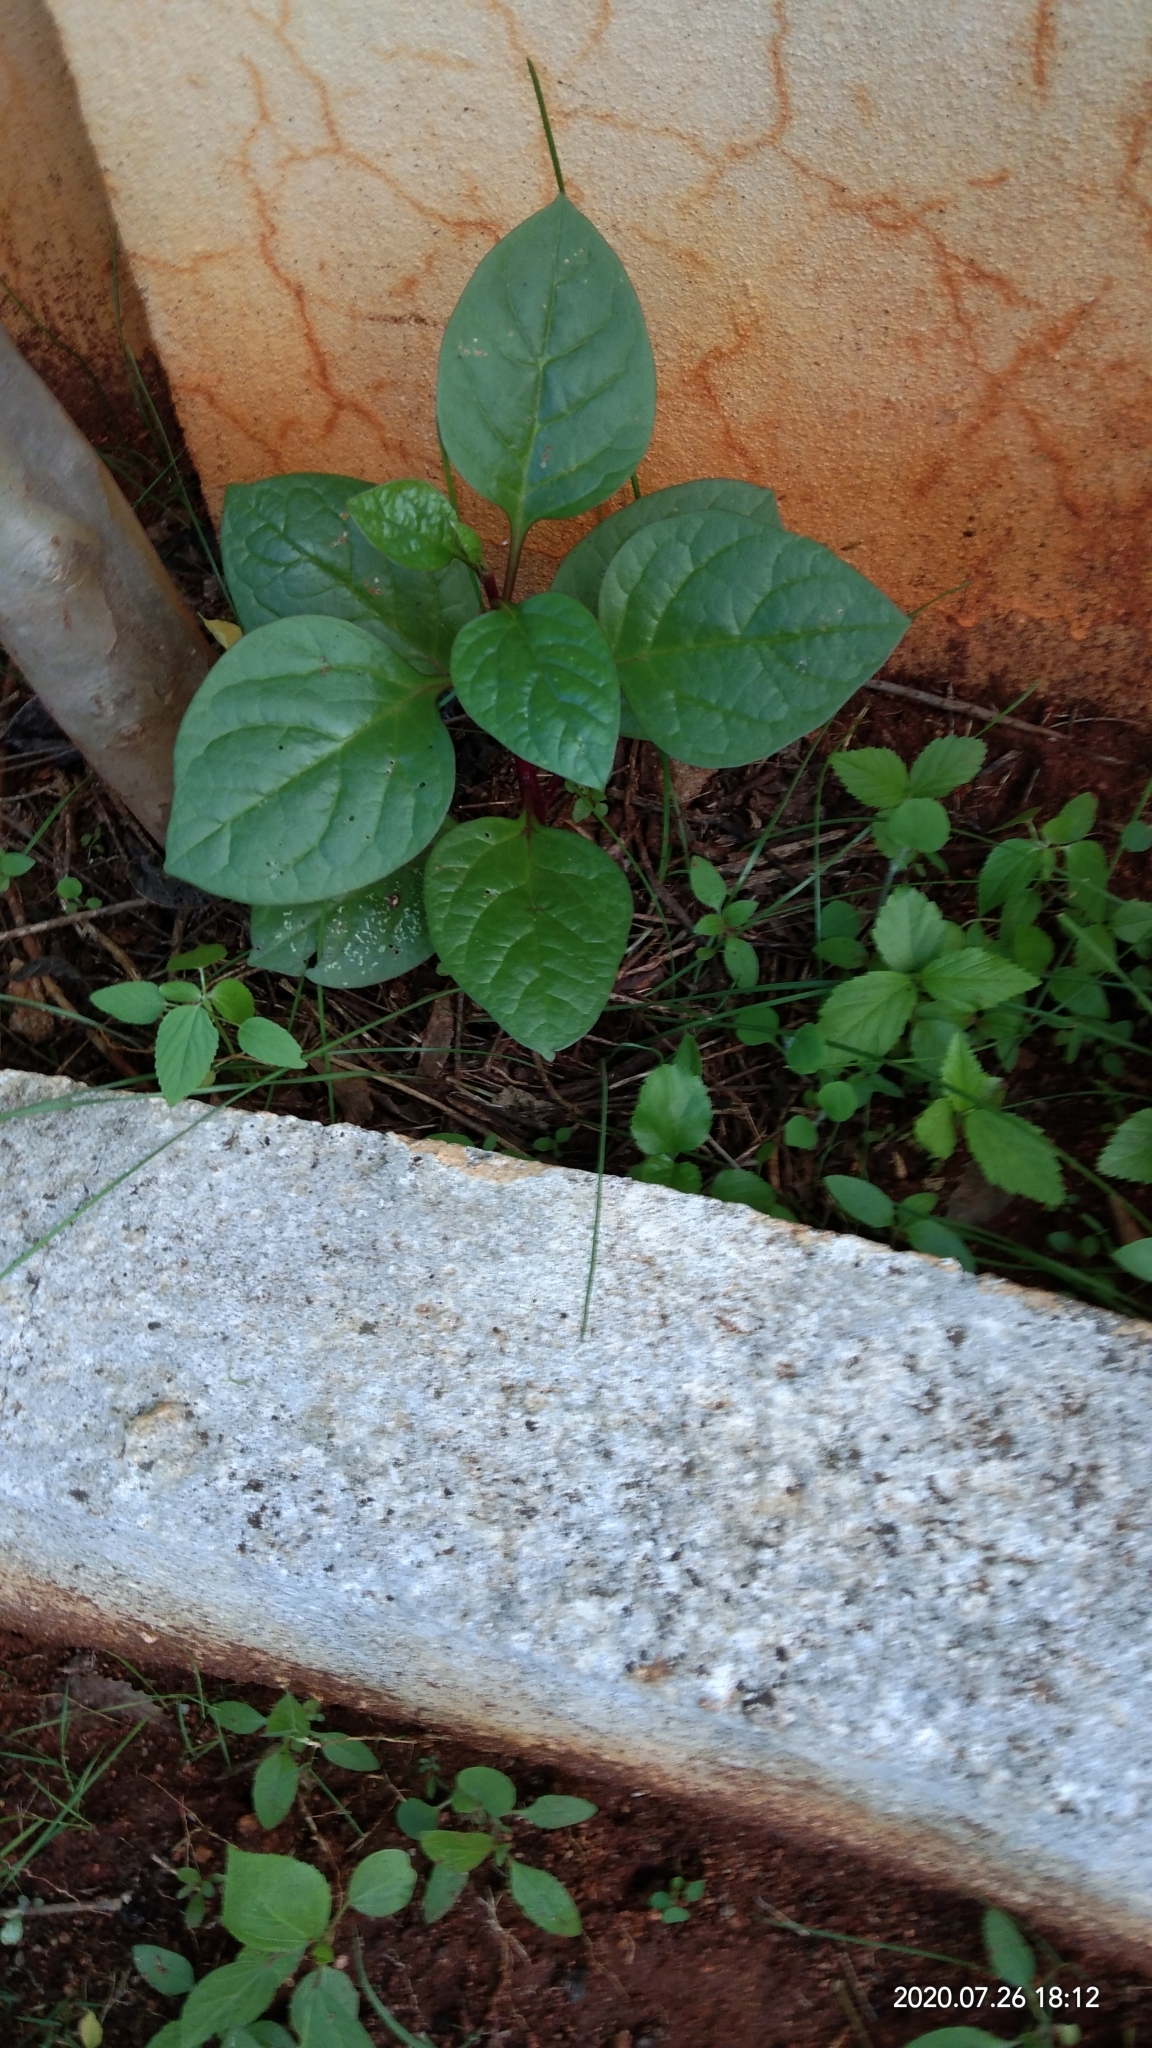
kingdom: Plantae
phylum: Tracheophyta
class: Magnoliopsida
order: Caryophyllales
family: Basellaceae
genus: Basella
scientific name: Basella alba
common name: Indian spinach
